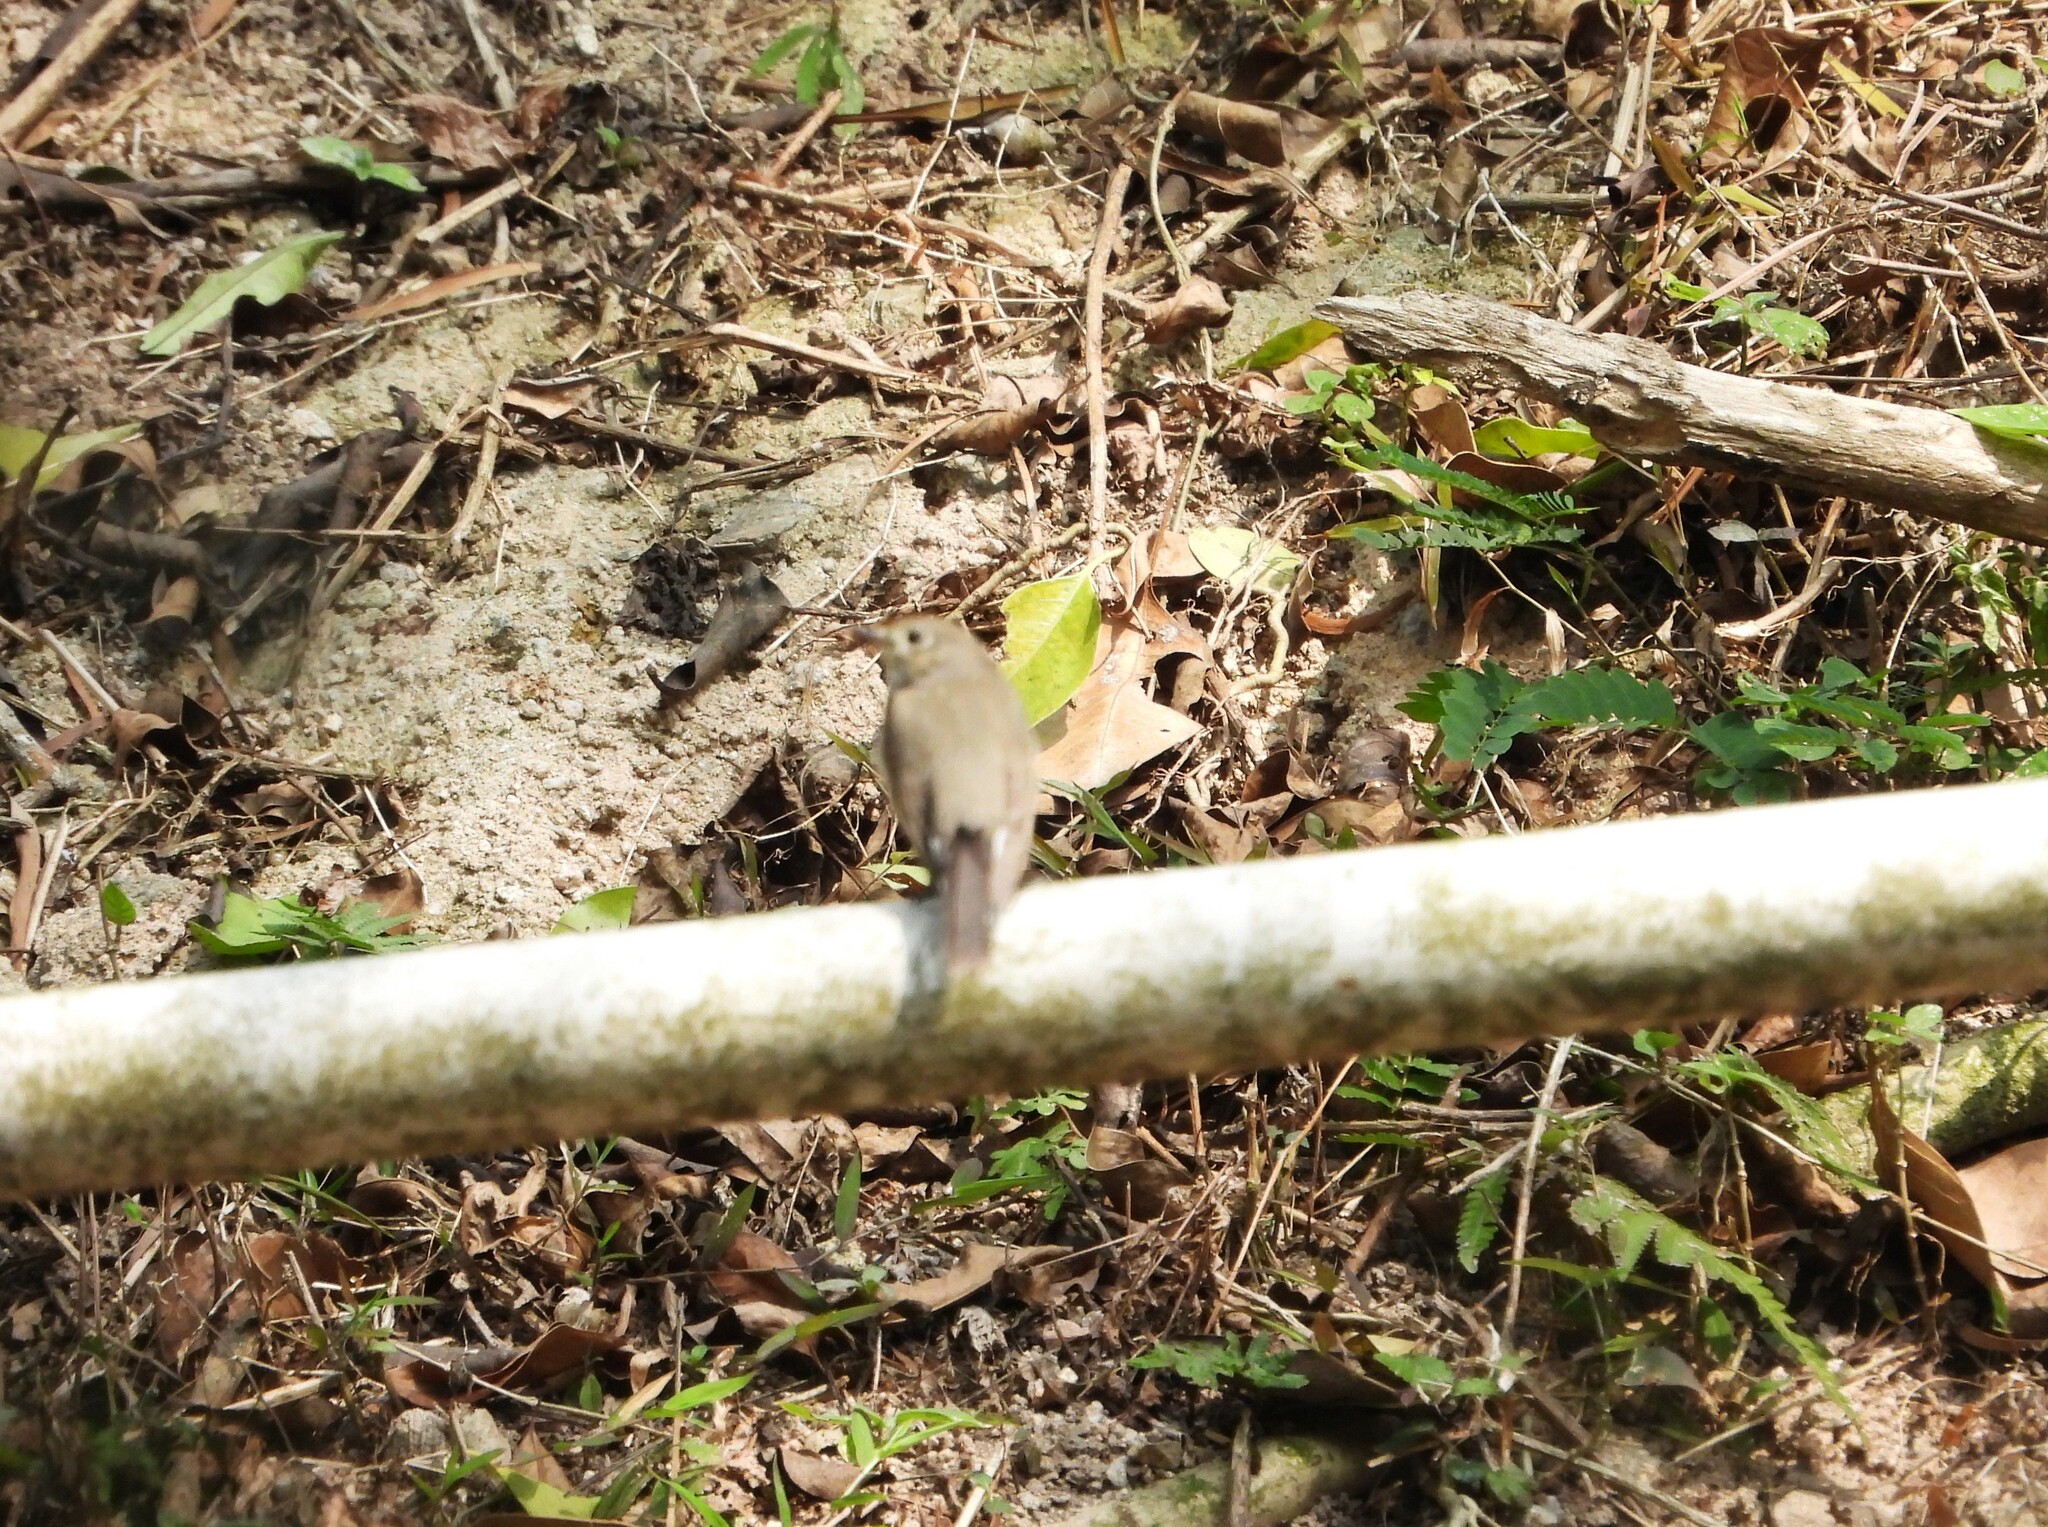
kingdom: Animalia
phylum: Chordata
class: Aves
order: Passeriformes
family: Muscicapidae
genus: Ficedula
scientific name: Ficedula albicilla
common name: Taiga flycatcher
